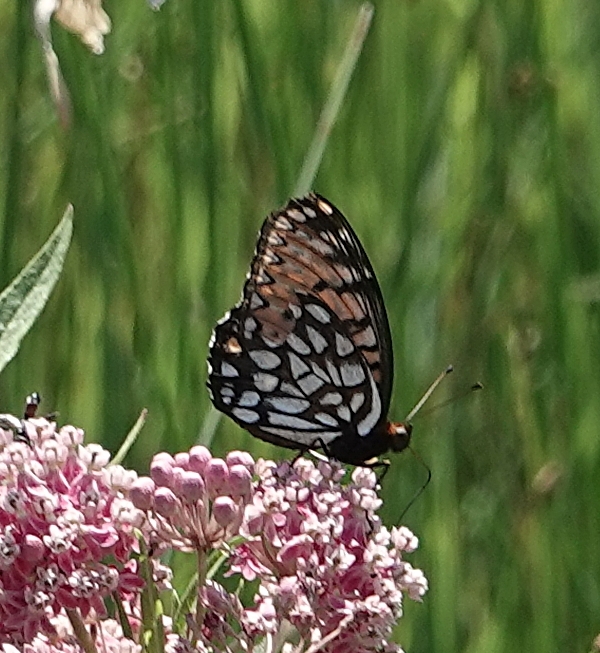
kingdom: Animalia
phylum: Arthropoda
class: Insecta
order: Lepidoptera
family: Nymphalidae
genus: Speyeria
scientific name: Speyeria idalia
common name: Regal fritillary
